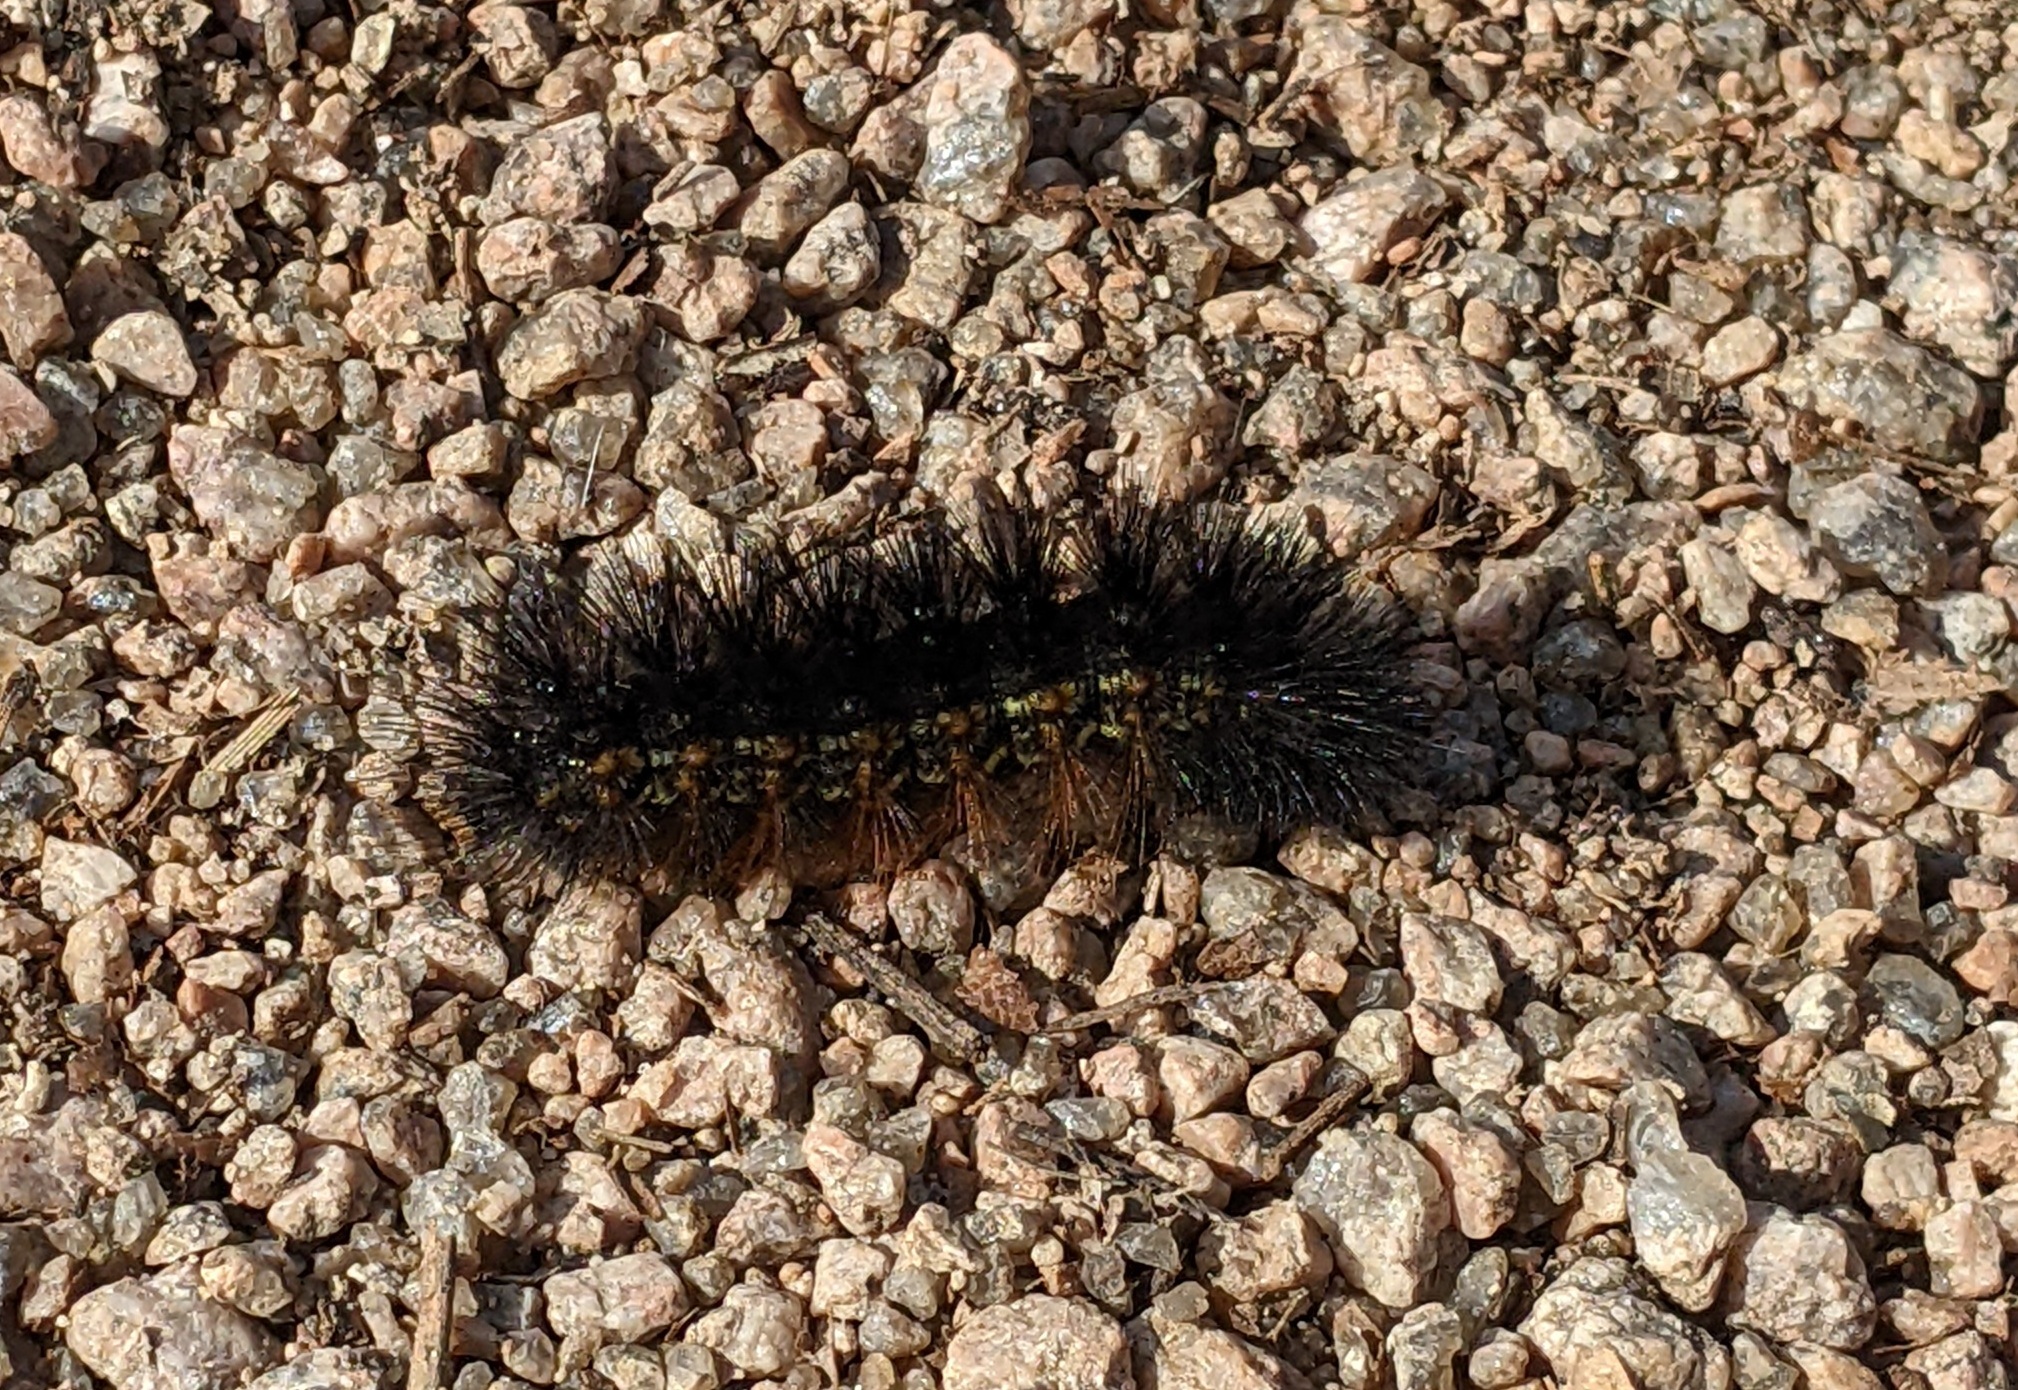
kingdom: Animalia
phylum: Arthropoda
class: Insecta
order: Lepidoptera
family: Erebidae
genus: Estigmene
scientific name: Estigmene acrea
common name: Salt marsh moth
